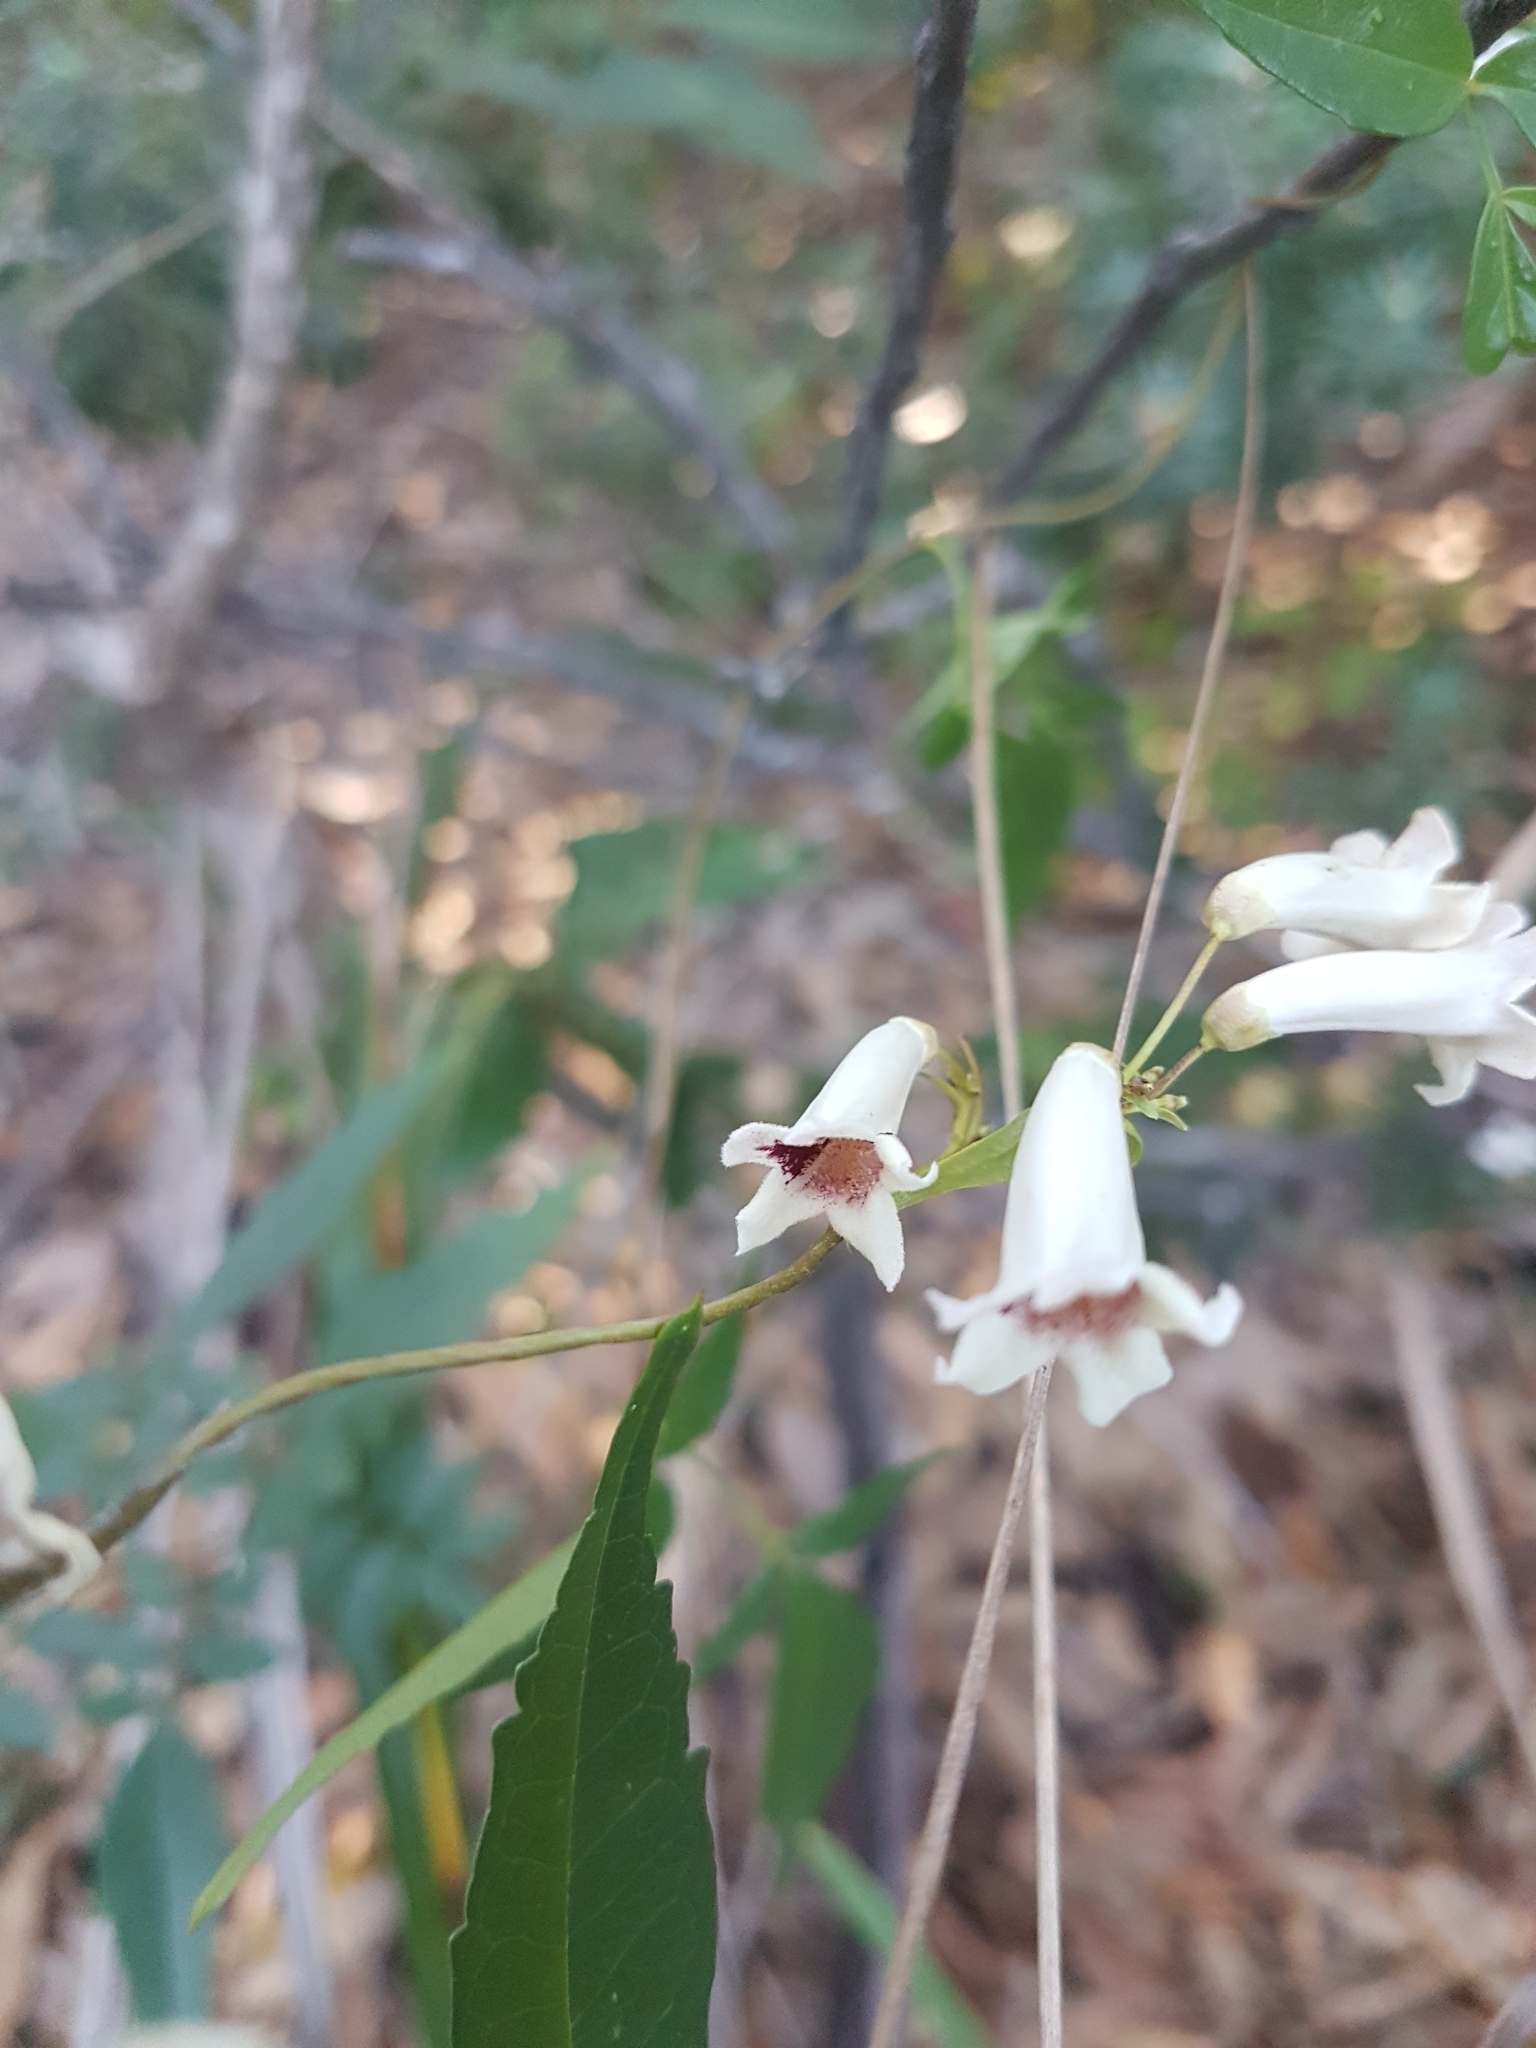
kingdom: Plantae
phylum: Tracheophyta
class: Magnoliopsida
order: Lamiales
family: Bignoniaceae
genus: Pandorea
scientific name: Pandorea pandorana
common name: Wonga-wonga-vine
